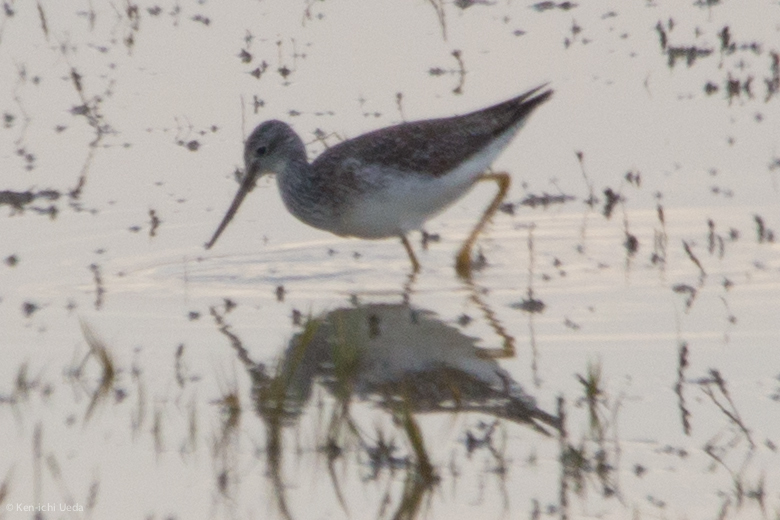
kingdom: Animalia
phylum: Chordata
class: Aves
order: Charadriiformes
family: Scolopacidae
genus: Tringa
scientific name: Tringa melanoleuca
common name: Greater yellowlegs
